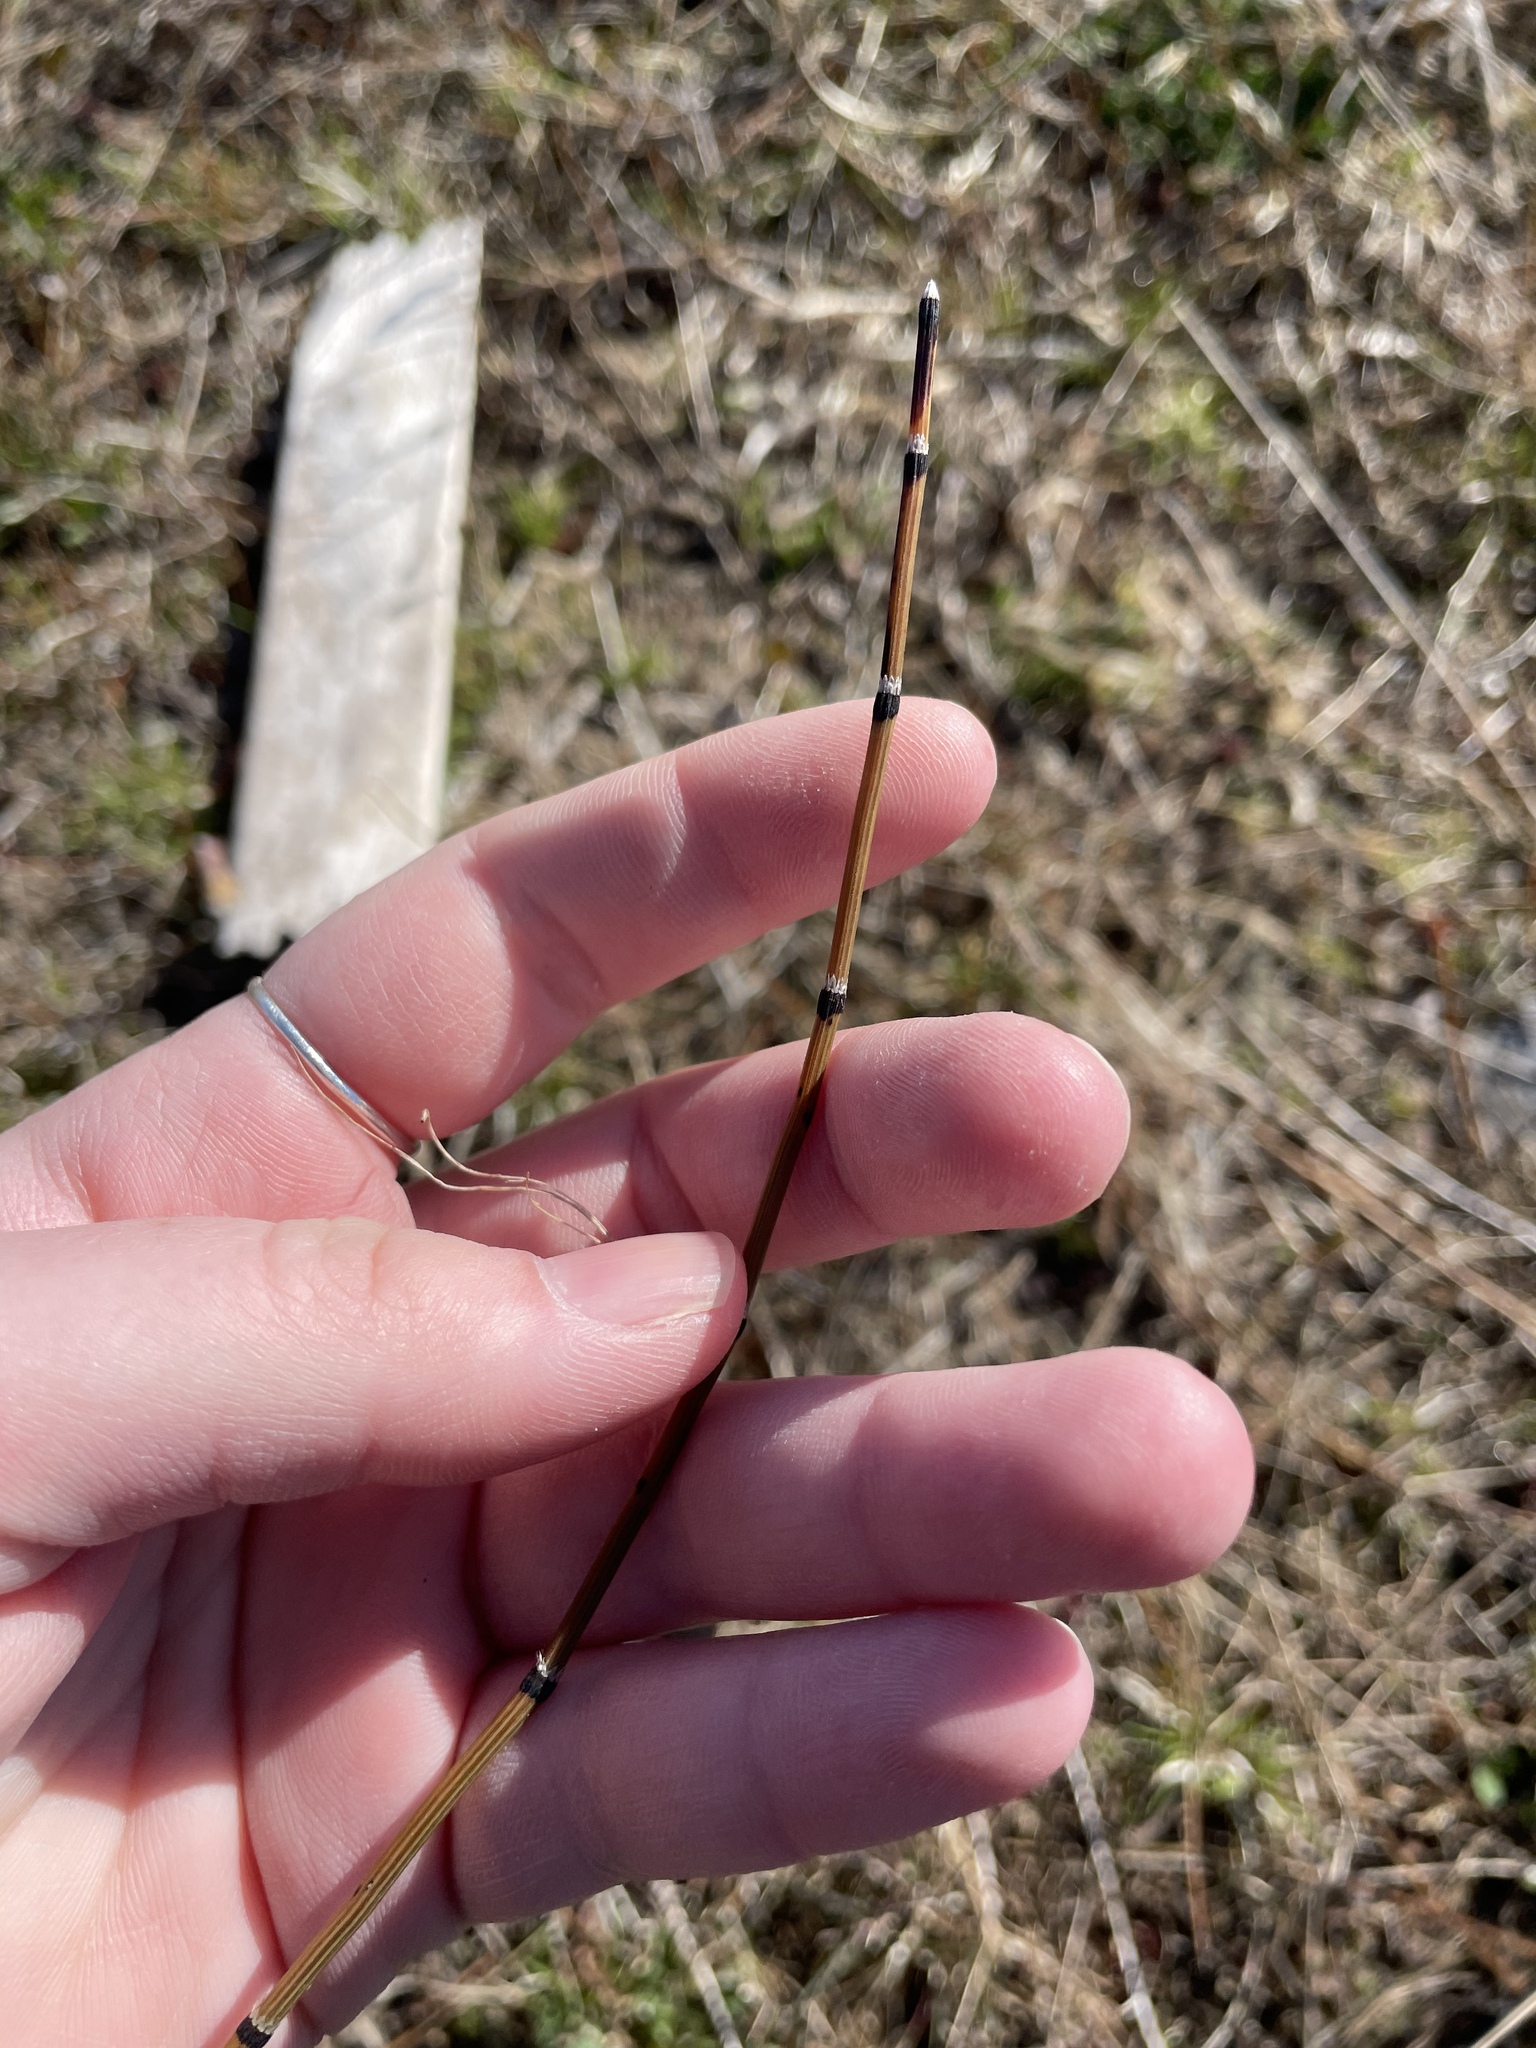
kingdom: Plantae
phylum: Tracheophyta
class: Polypodiopsida
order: Equisetales
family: Equisetaceae
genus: Equisetum
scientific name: Equisetum variegatum
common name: Variegated horsetail
